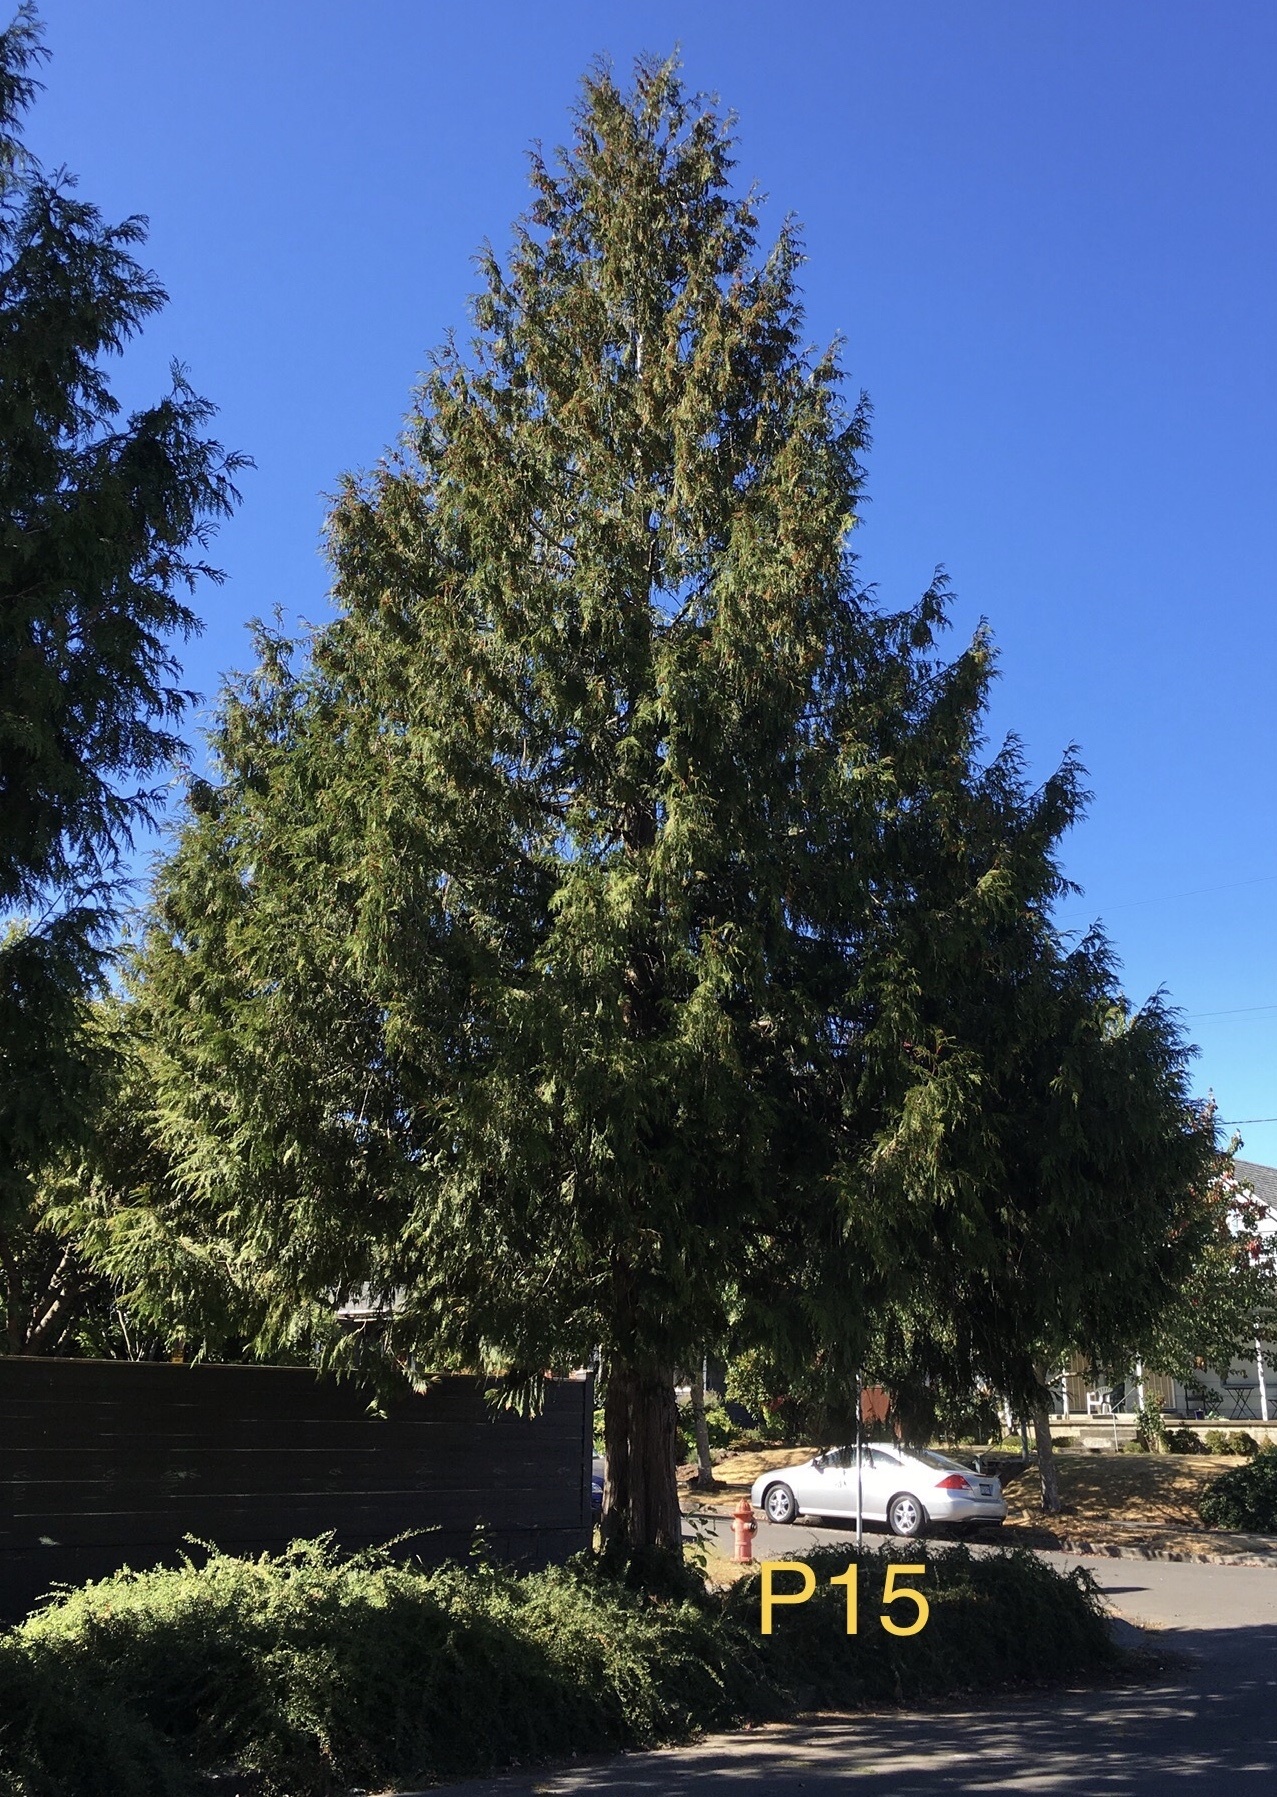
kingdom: Plantae
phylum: Tracheophyta
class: Pinopsida
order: Pinales
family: Cupressaceae
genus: Thuja
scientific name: Thuja plicata
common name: Western red-cedar
